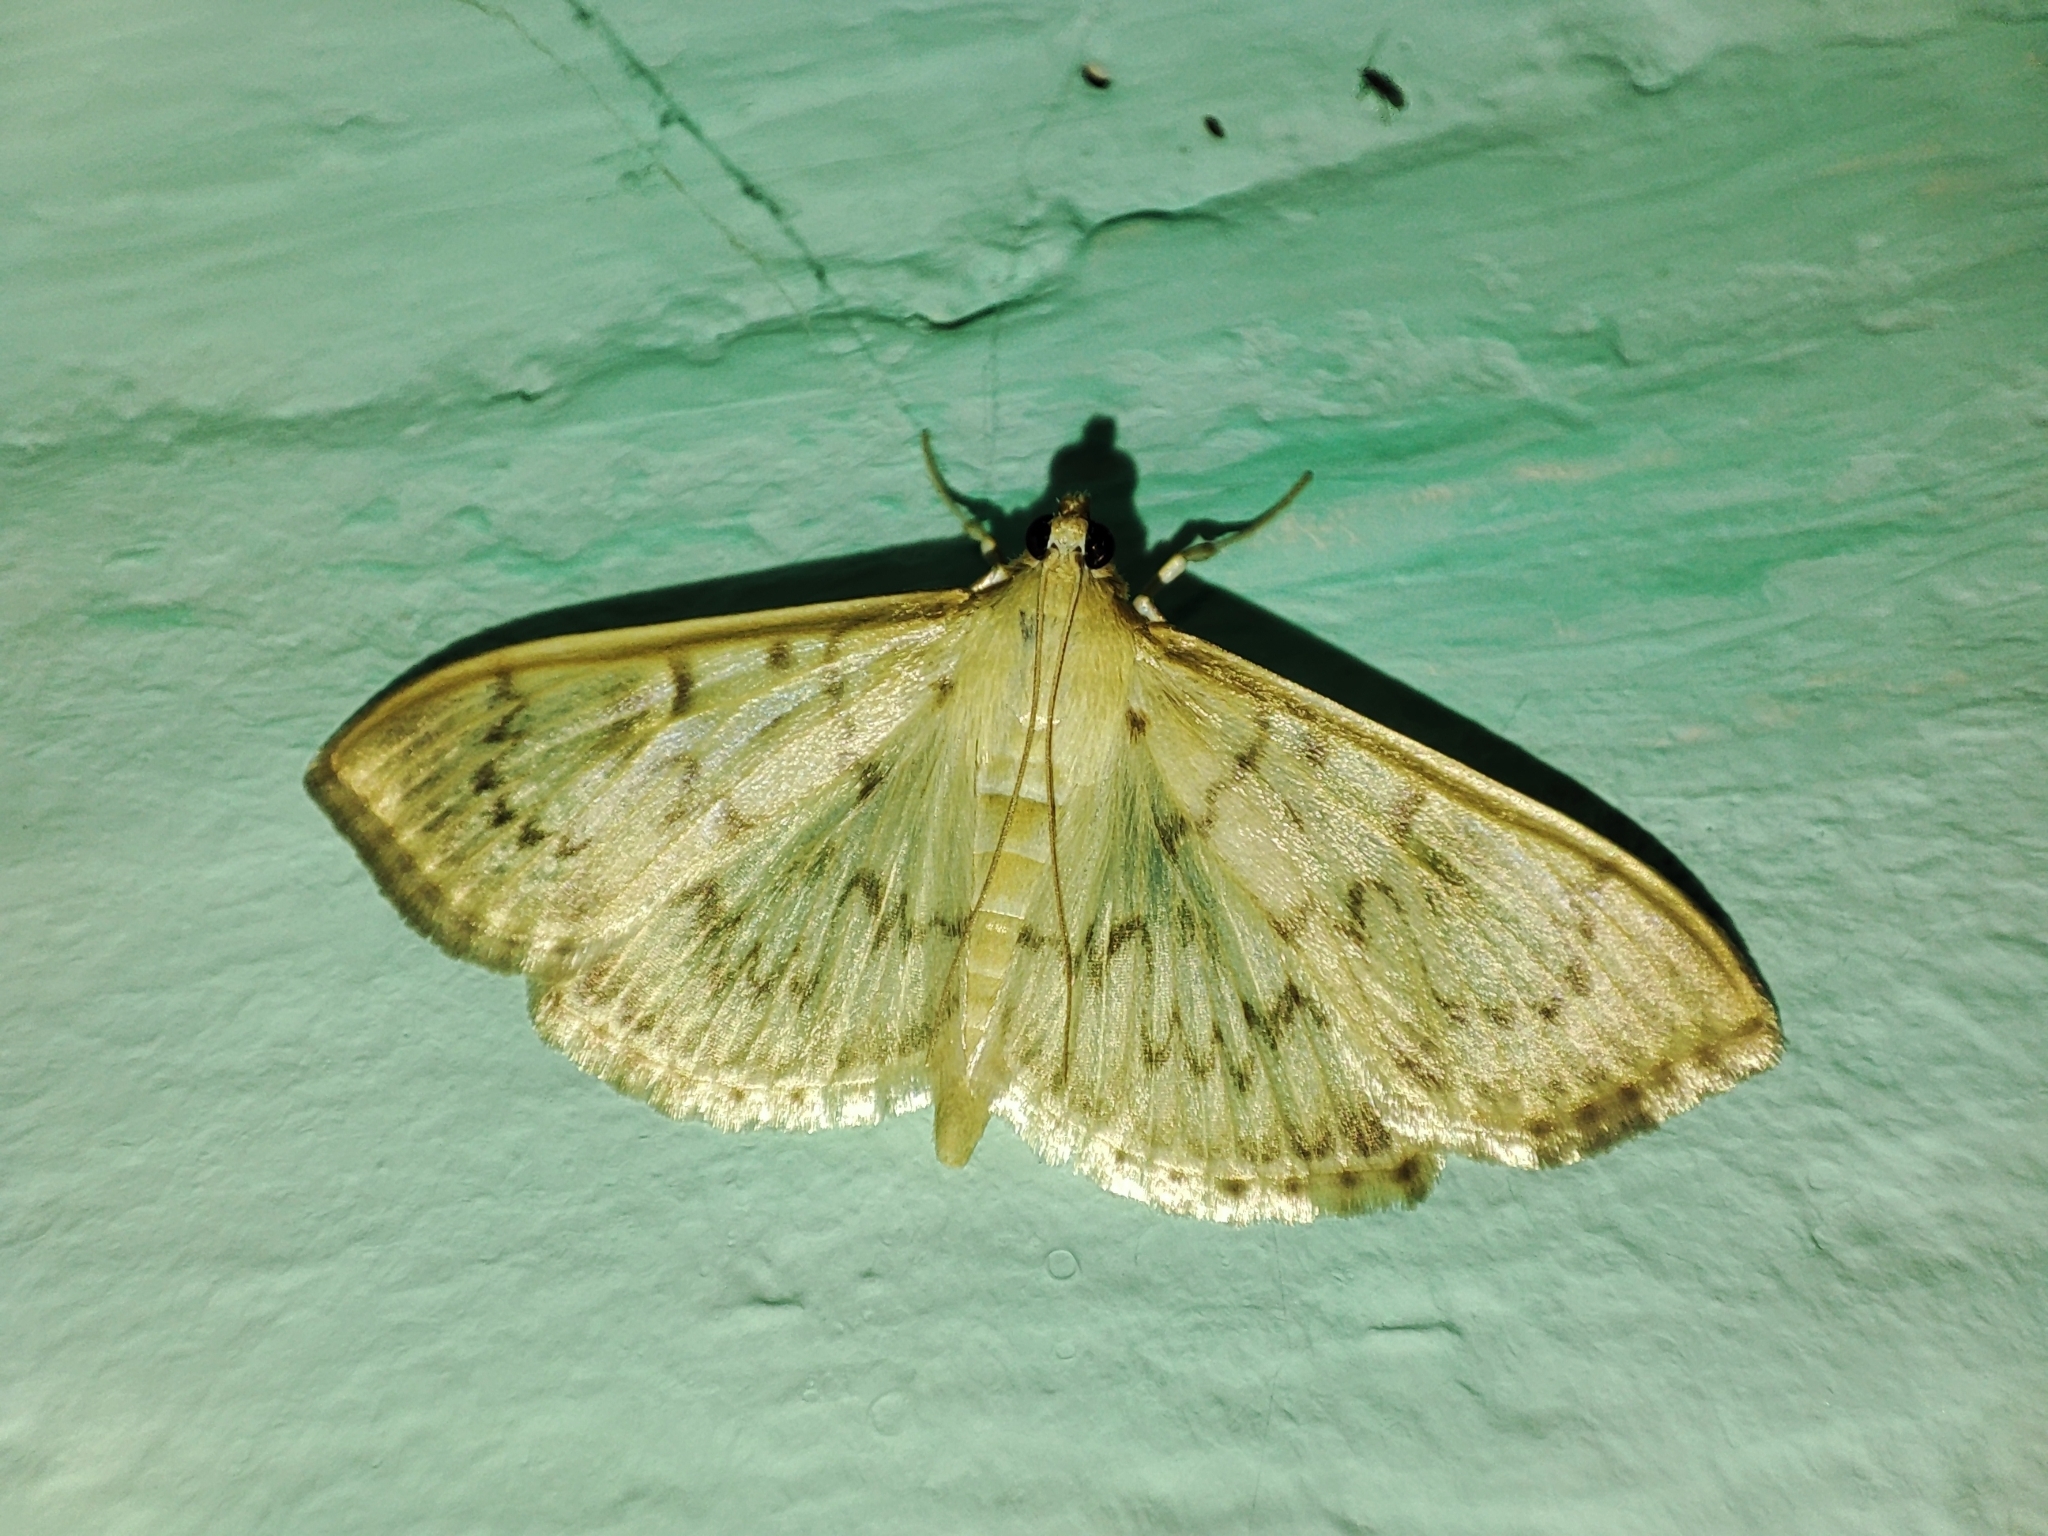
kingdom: Animalia
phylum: Arthropoda
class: Insecta
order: Lepidoptera
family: Crambidae
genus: Patania
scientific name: Patania ruralis
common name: Mother of pearl
